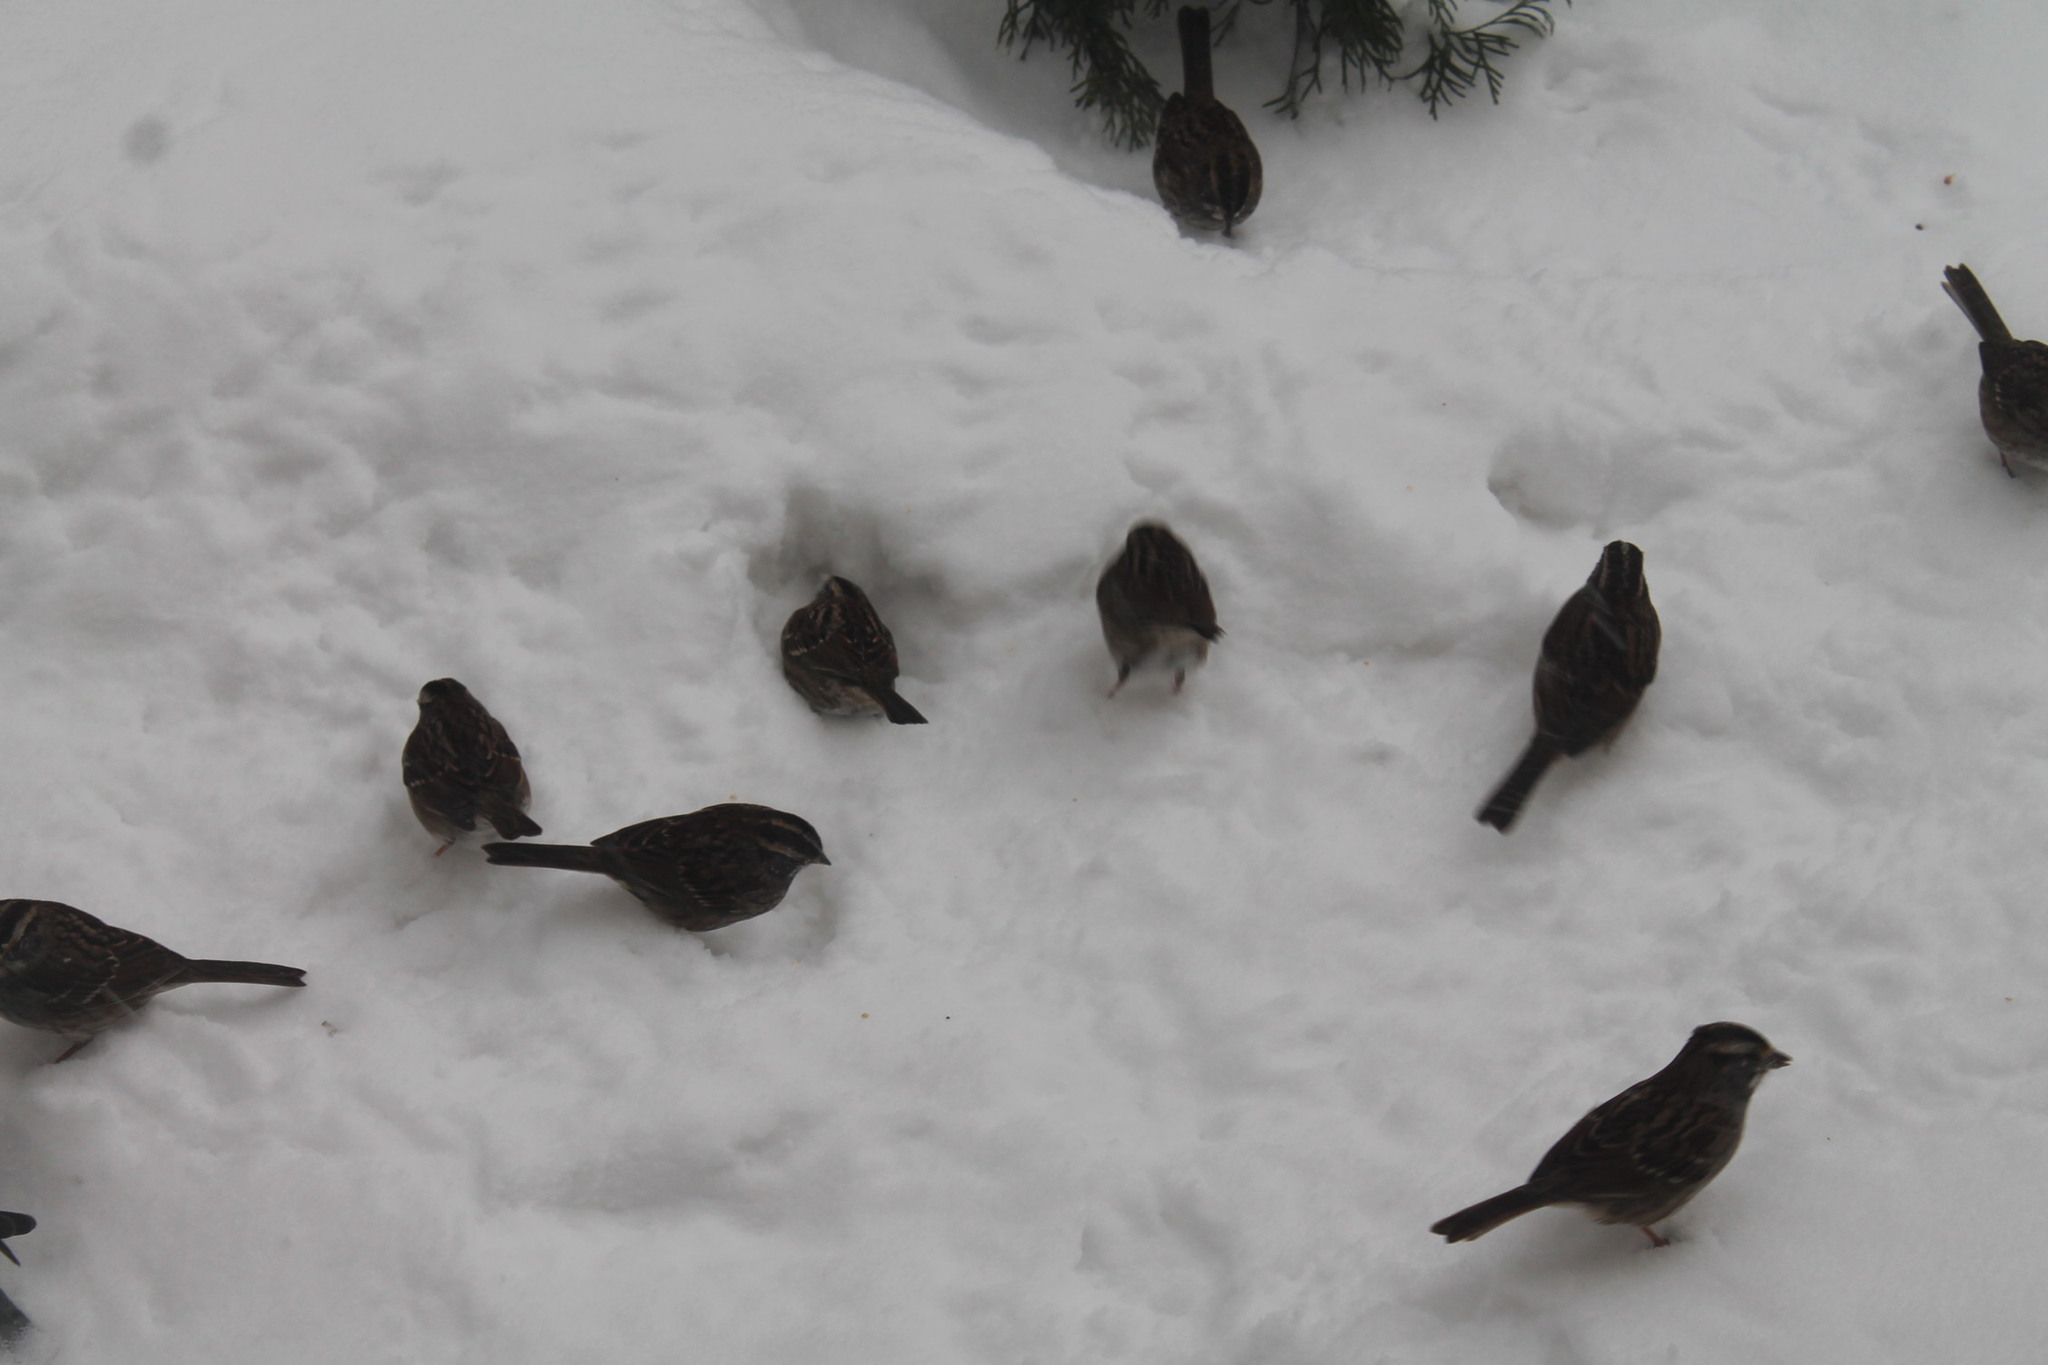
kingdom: Animalia
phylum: Chordata
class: Aves
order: Passeriformes
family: Passerellidae
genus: Zonotrichia
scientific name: Zonotrichia albicollis
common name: White-throated sparrow
